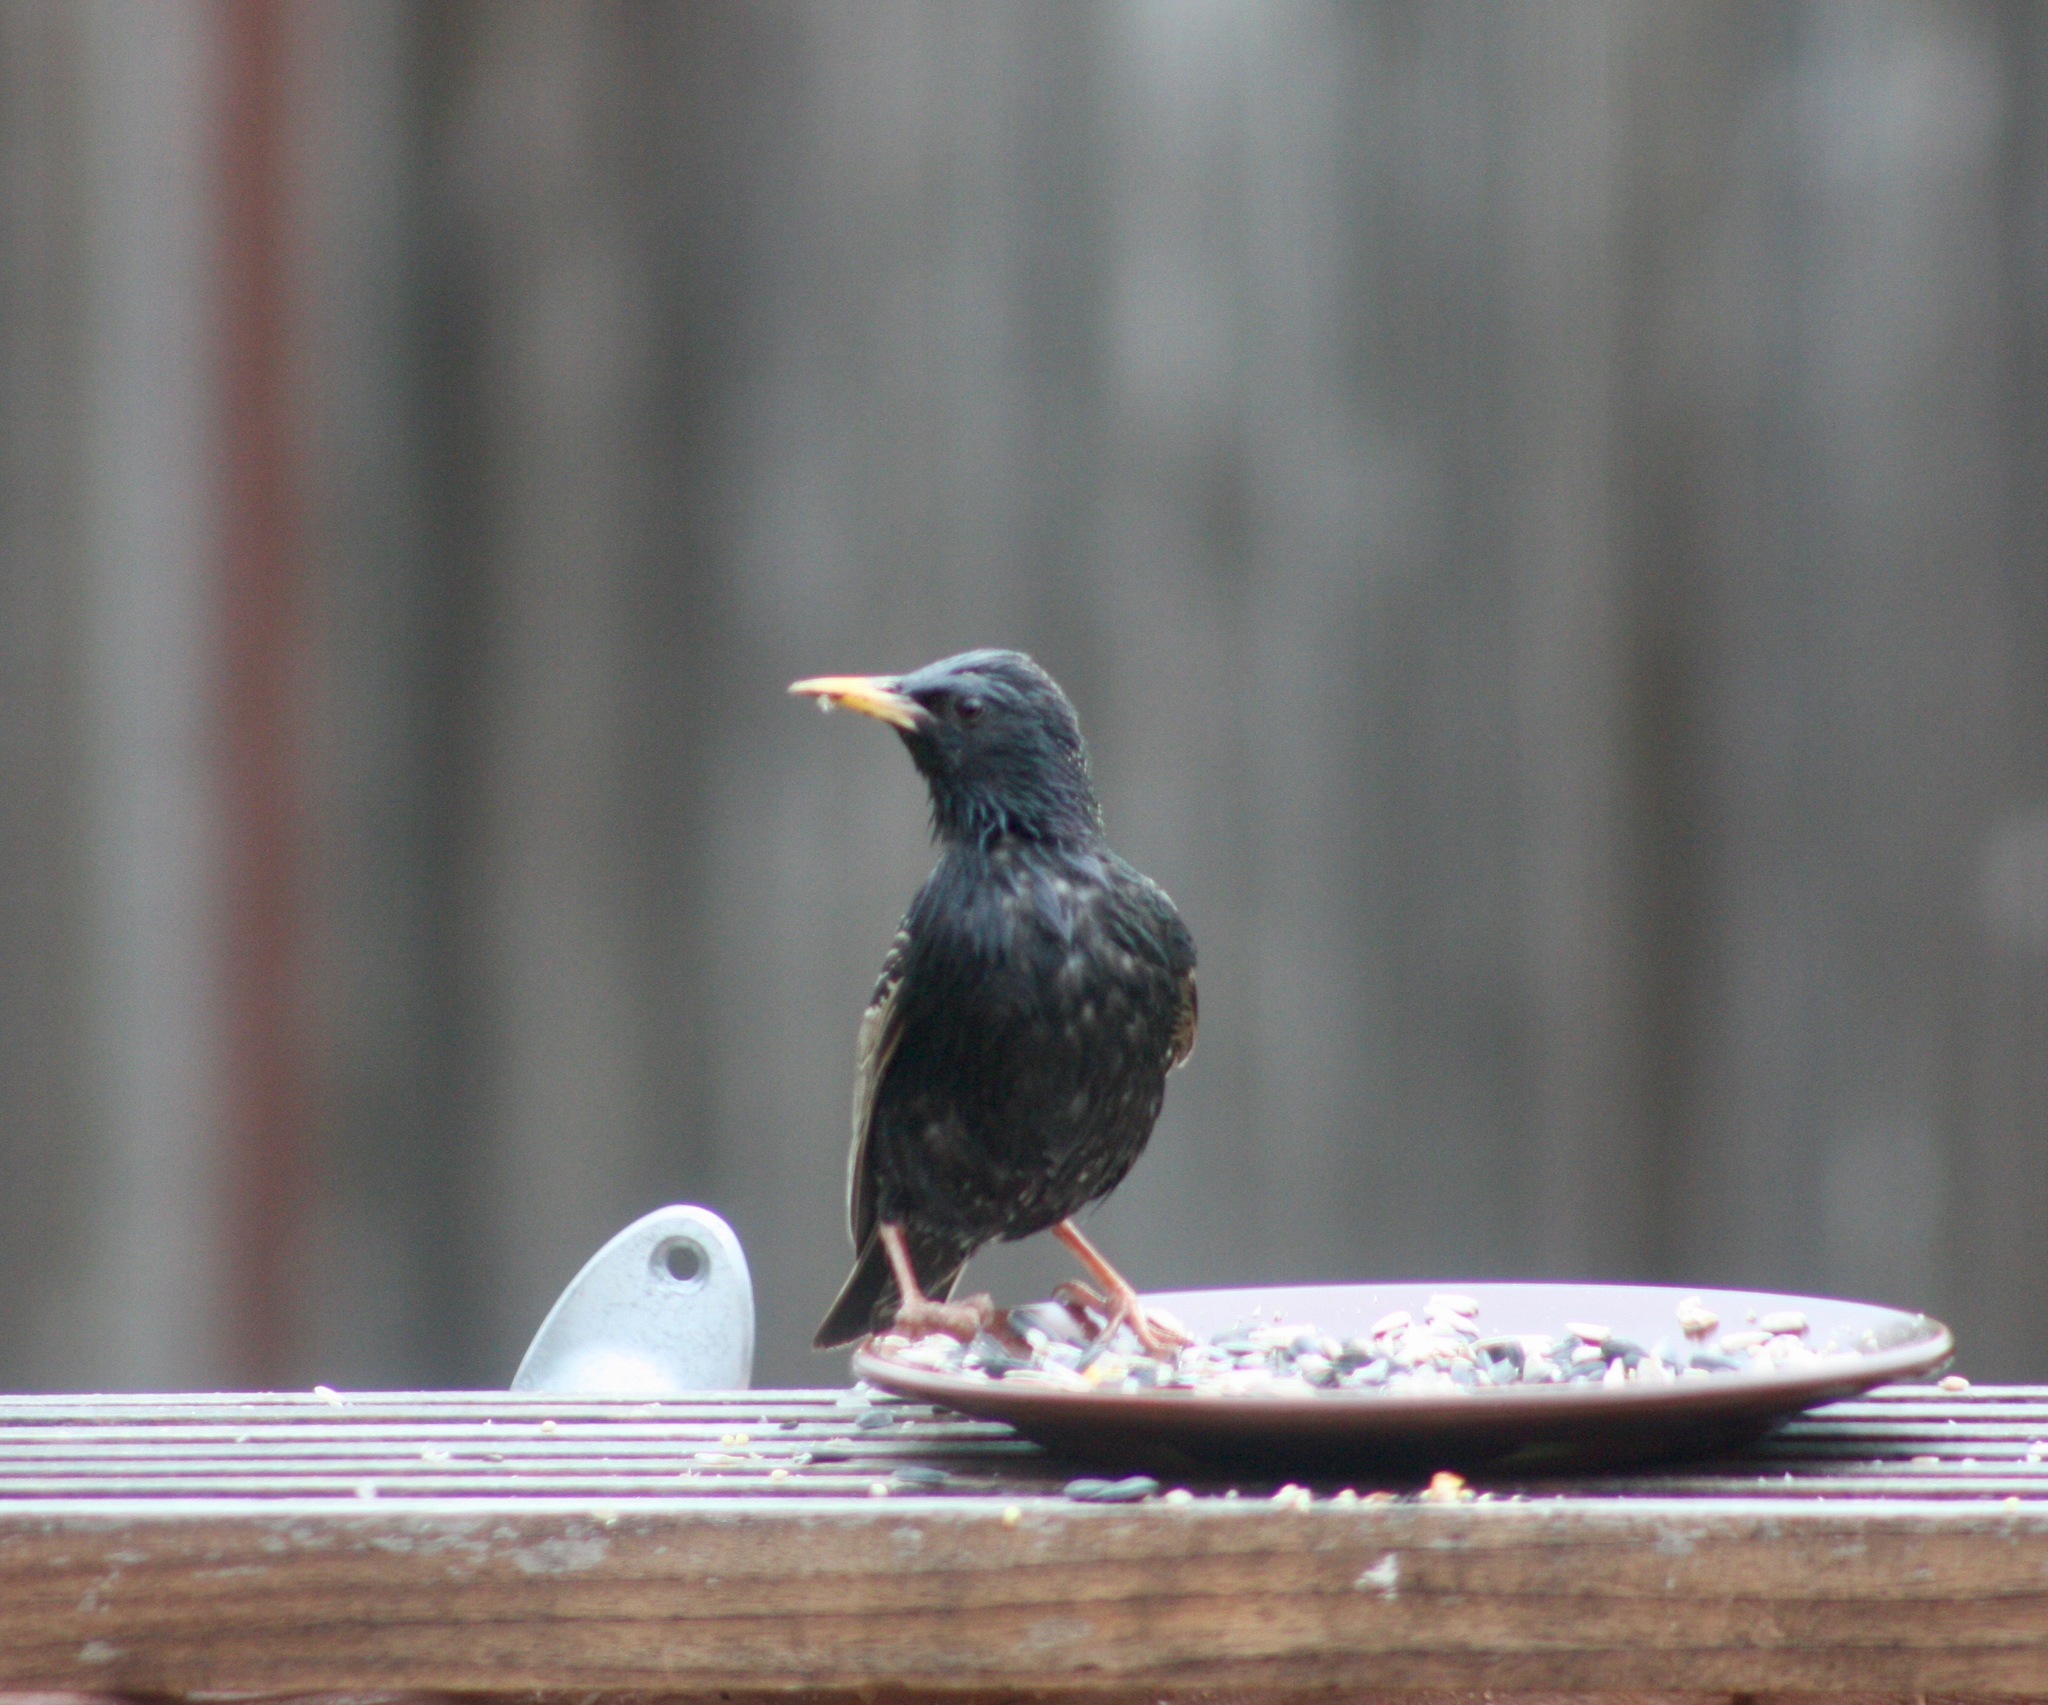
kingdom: Animalia
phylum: Chordata
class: Aves
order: Passeriformes
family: Sturnidae
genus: Sturnus
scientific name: Sturnus vulgaris
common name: Common starling
